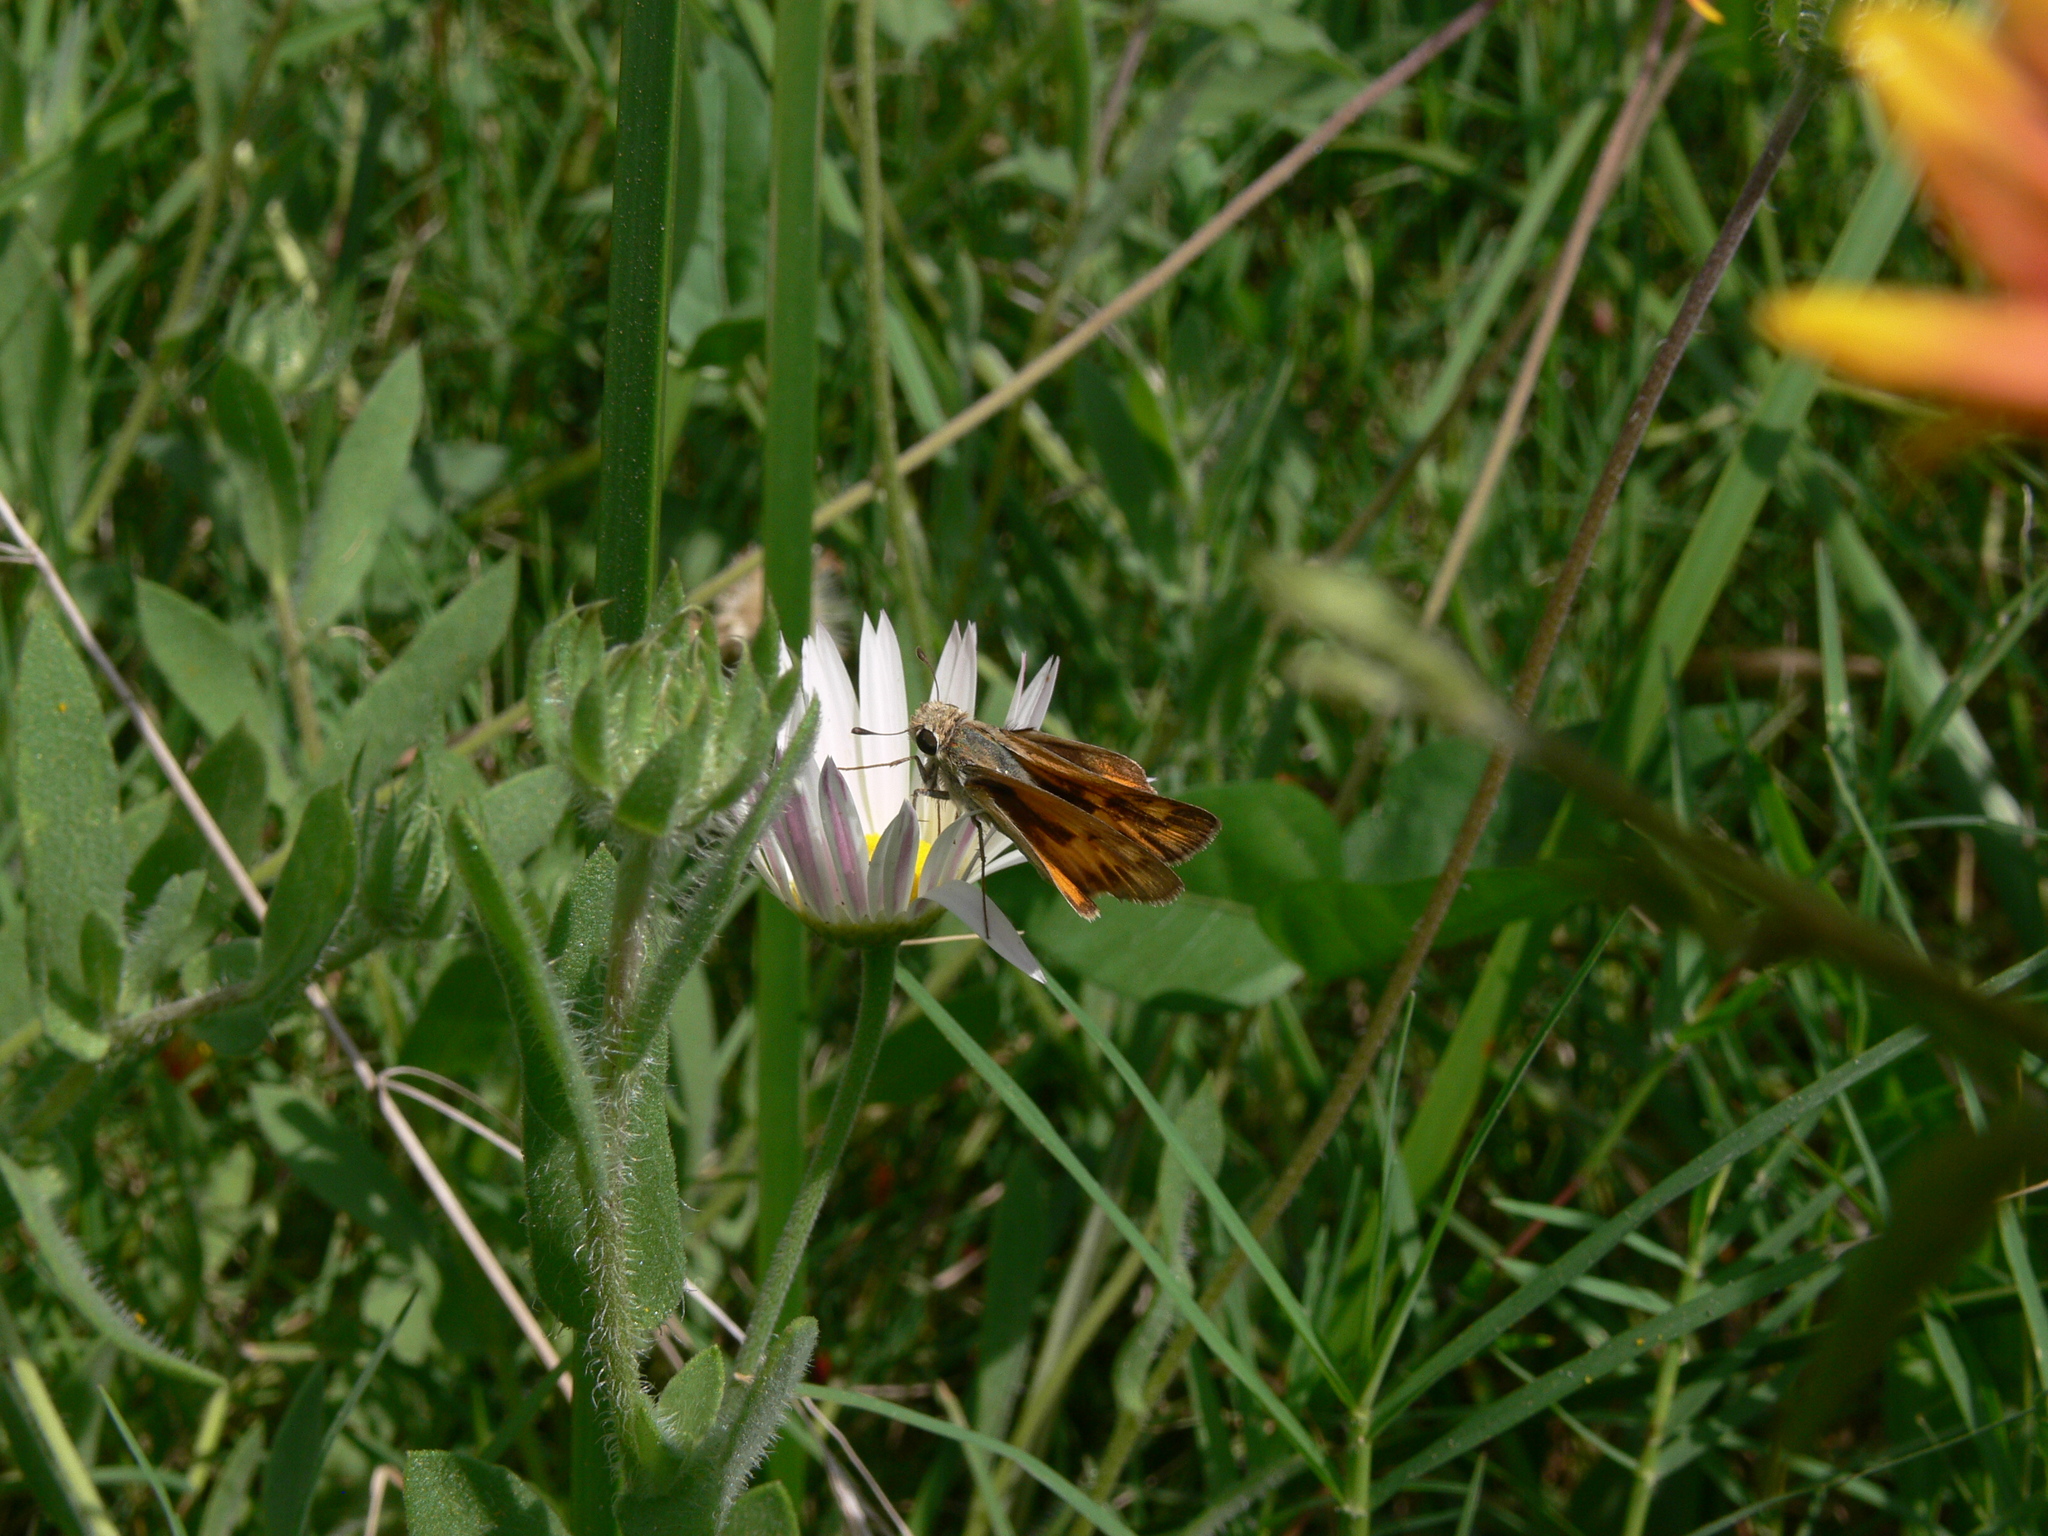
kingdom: Animalia
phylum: Arthropoda
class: Insecta
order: Lepidoptera
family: Hesperiidae
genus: Hylephila
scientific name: Hylephila phyleus
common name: Fiery skipper
